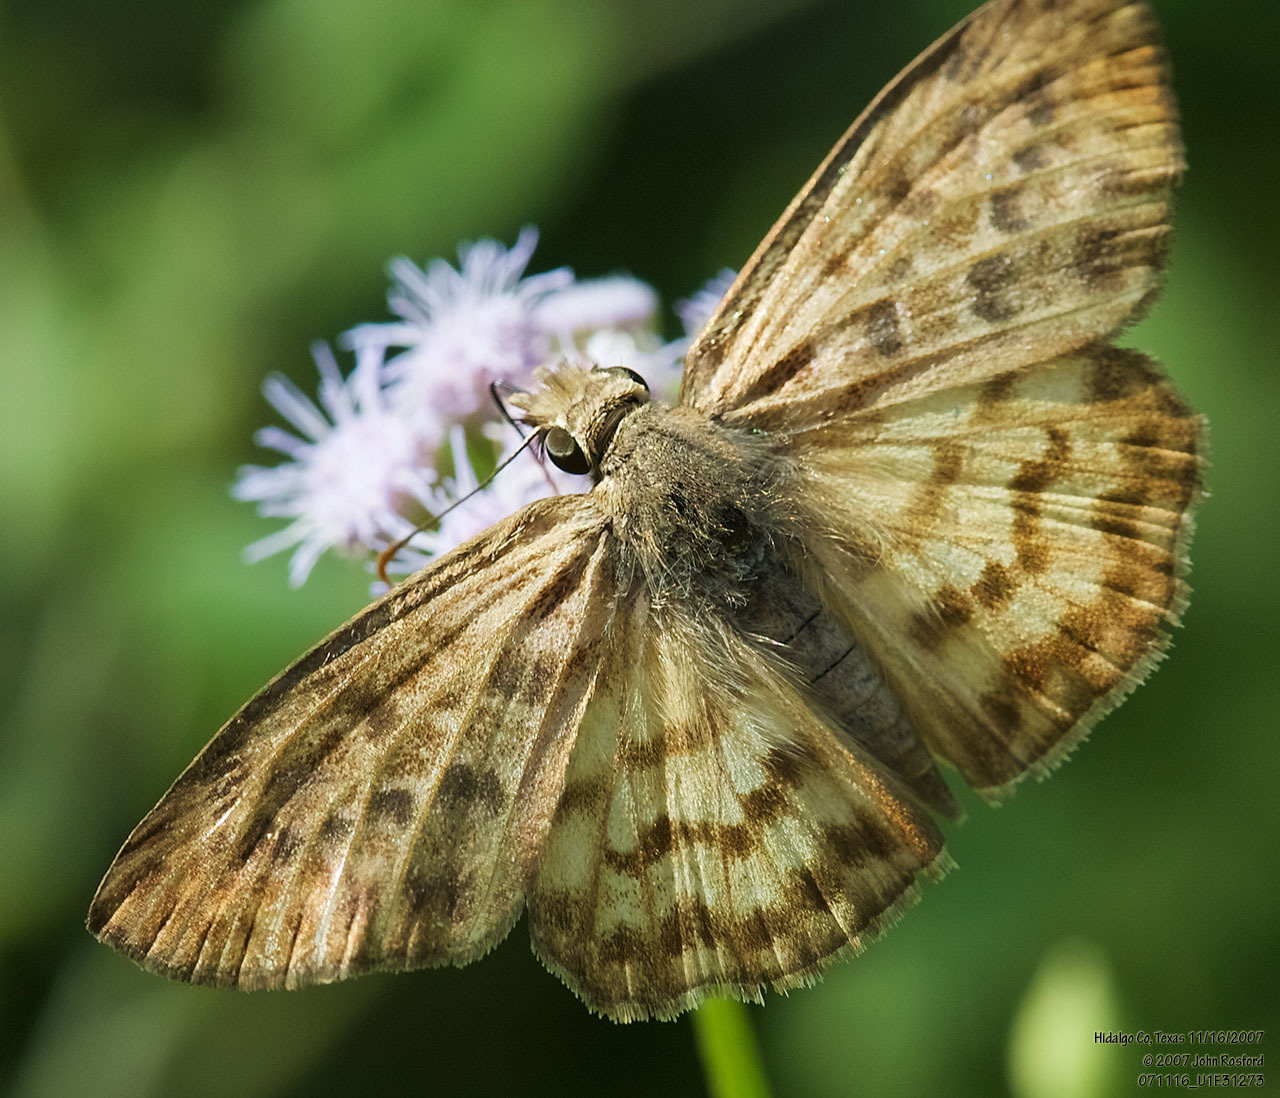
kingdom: Animalia
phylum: Arthropoda
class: Insecta
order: Lepidoptera
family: Hesperiidae
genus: Timochares
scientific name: Timochares ruptifasciata
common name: Brown-banded skipper
